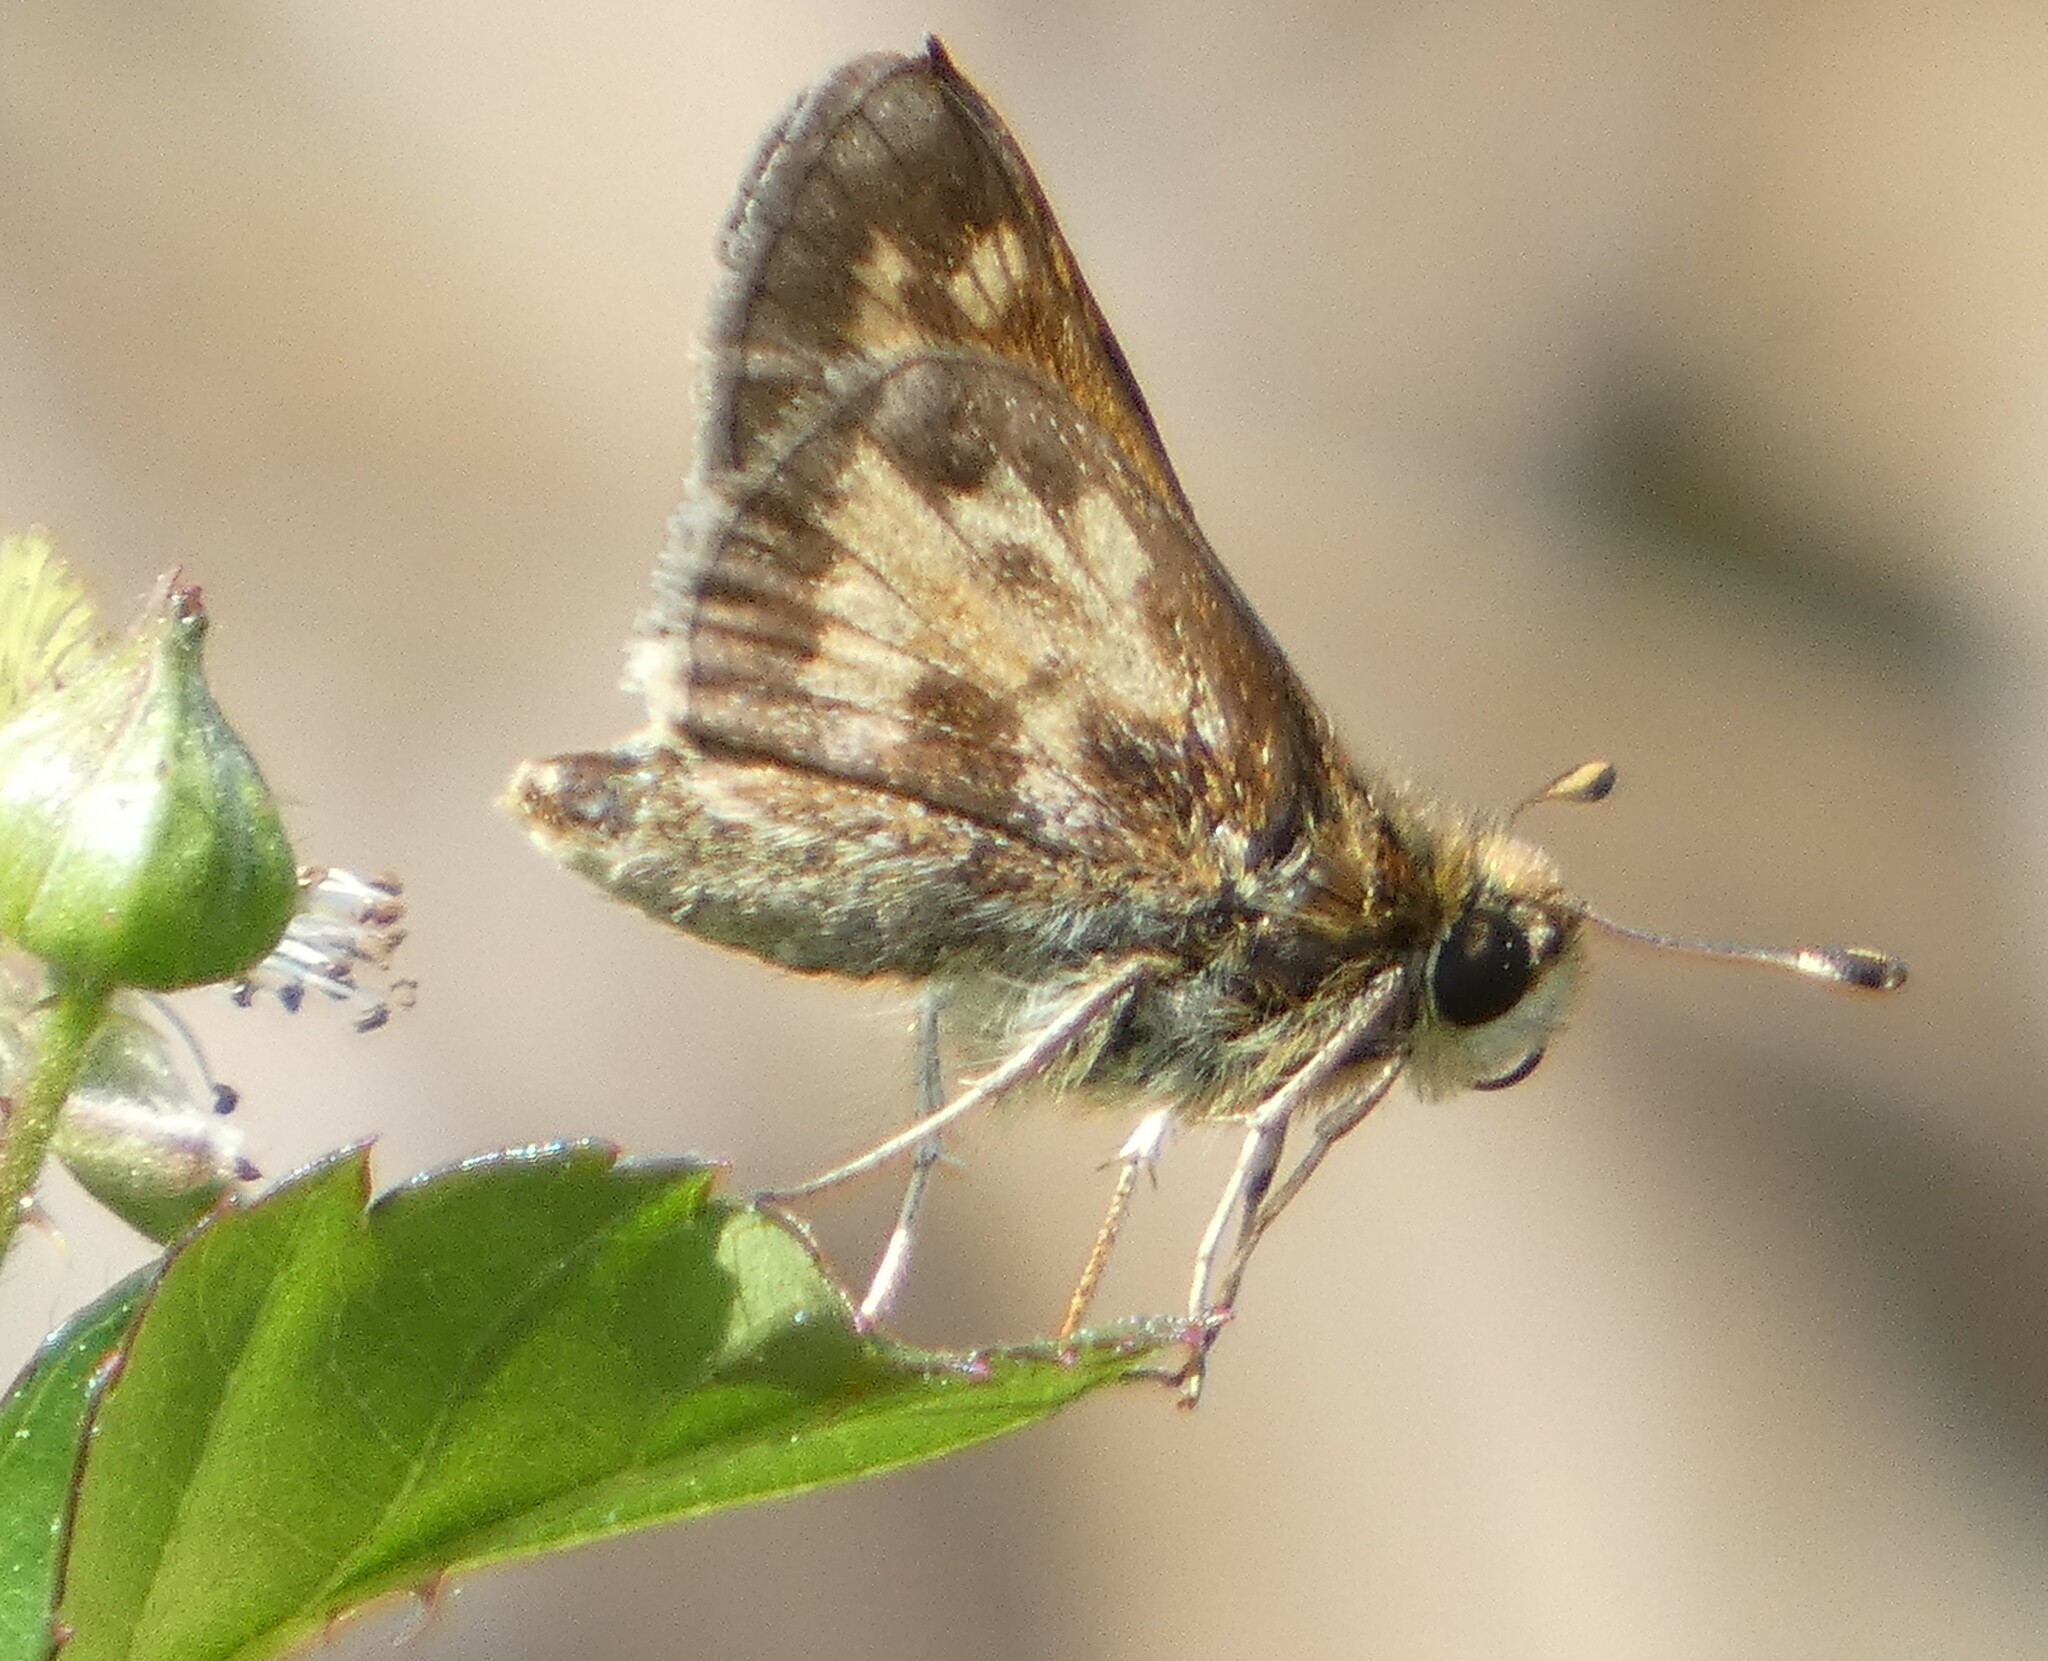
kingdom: Animalia
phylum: Arthropoda
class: Insecta
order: Lepidoptera
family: Hesperiidae
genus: Atalopedes
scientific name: Atalopedes
